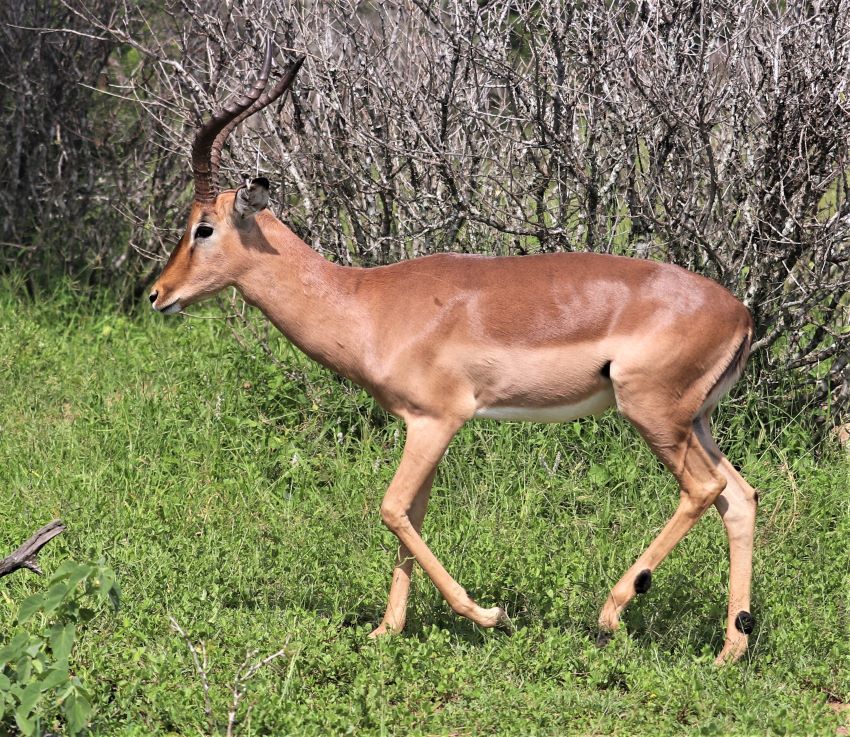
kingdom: Animalia
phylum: Chordata
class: Mammalia
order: Artiodactyla
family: Bovidae
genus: Aepyceros
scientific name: Aepyceros melampus
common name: Impala
